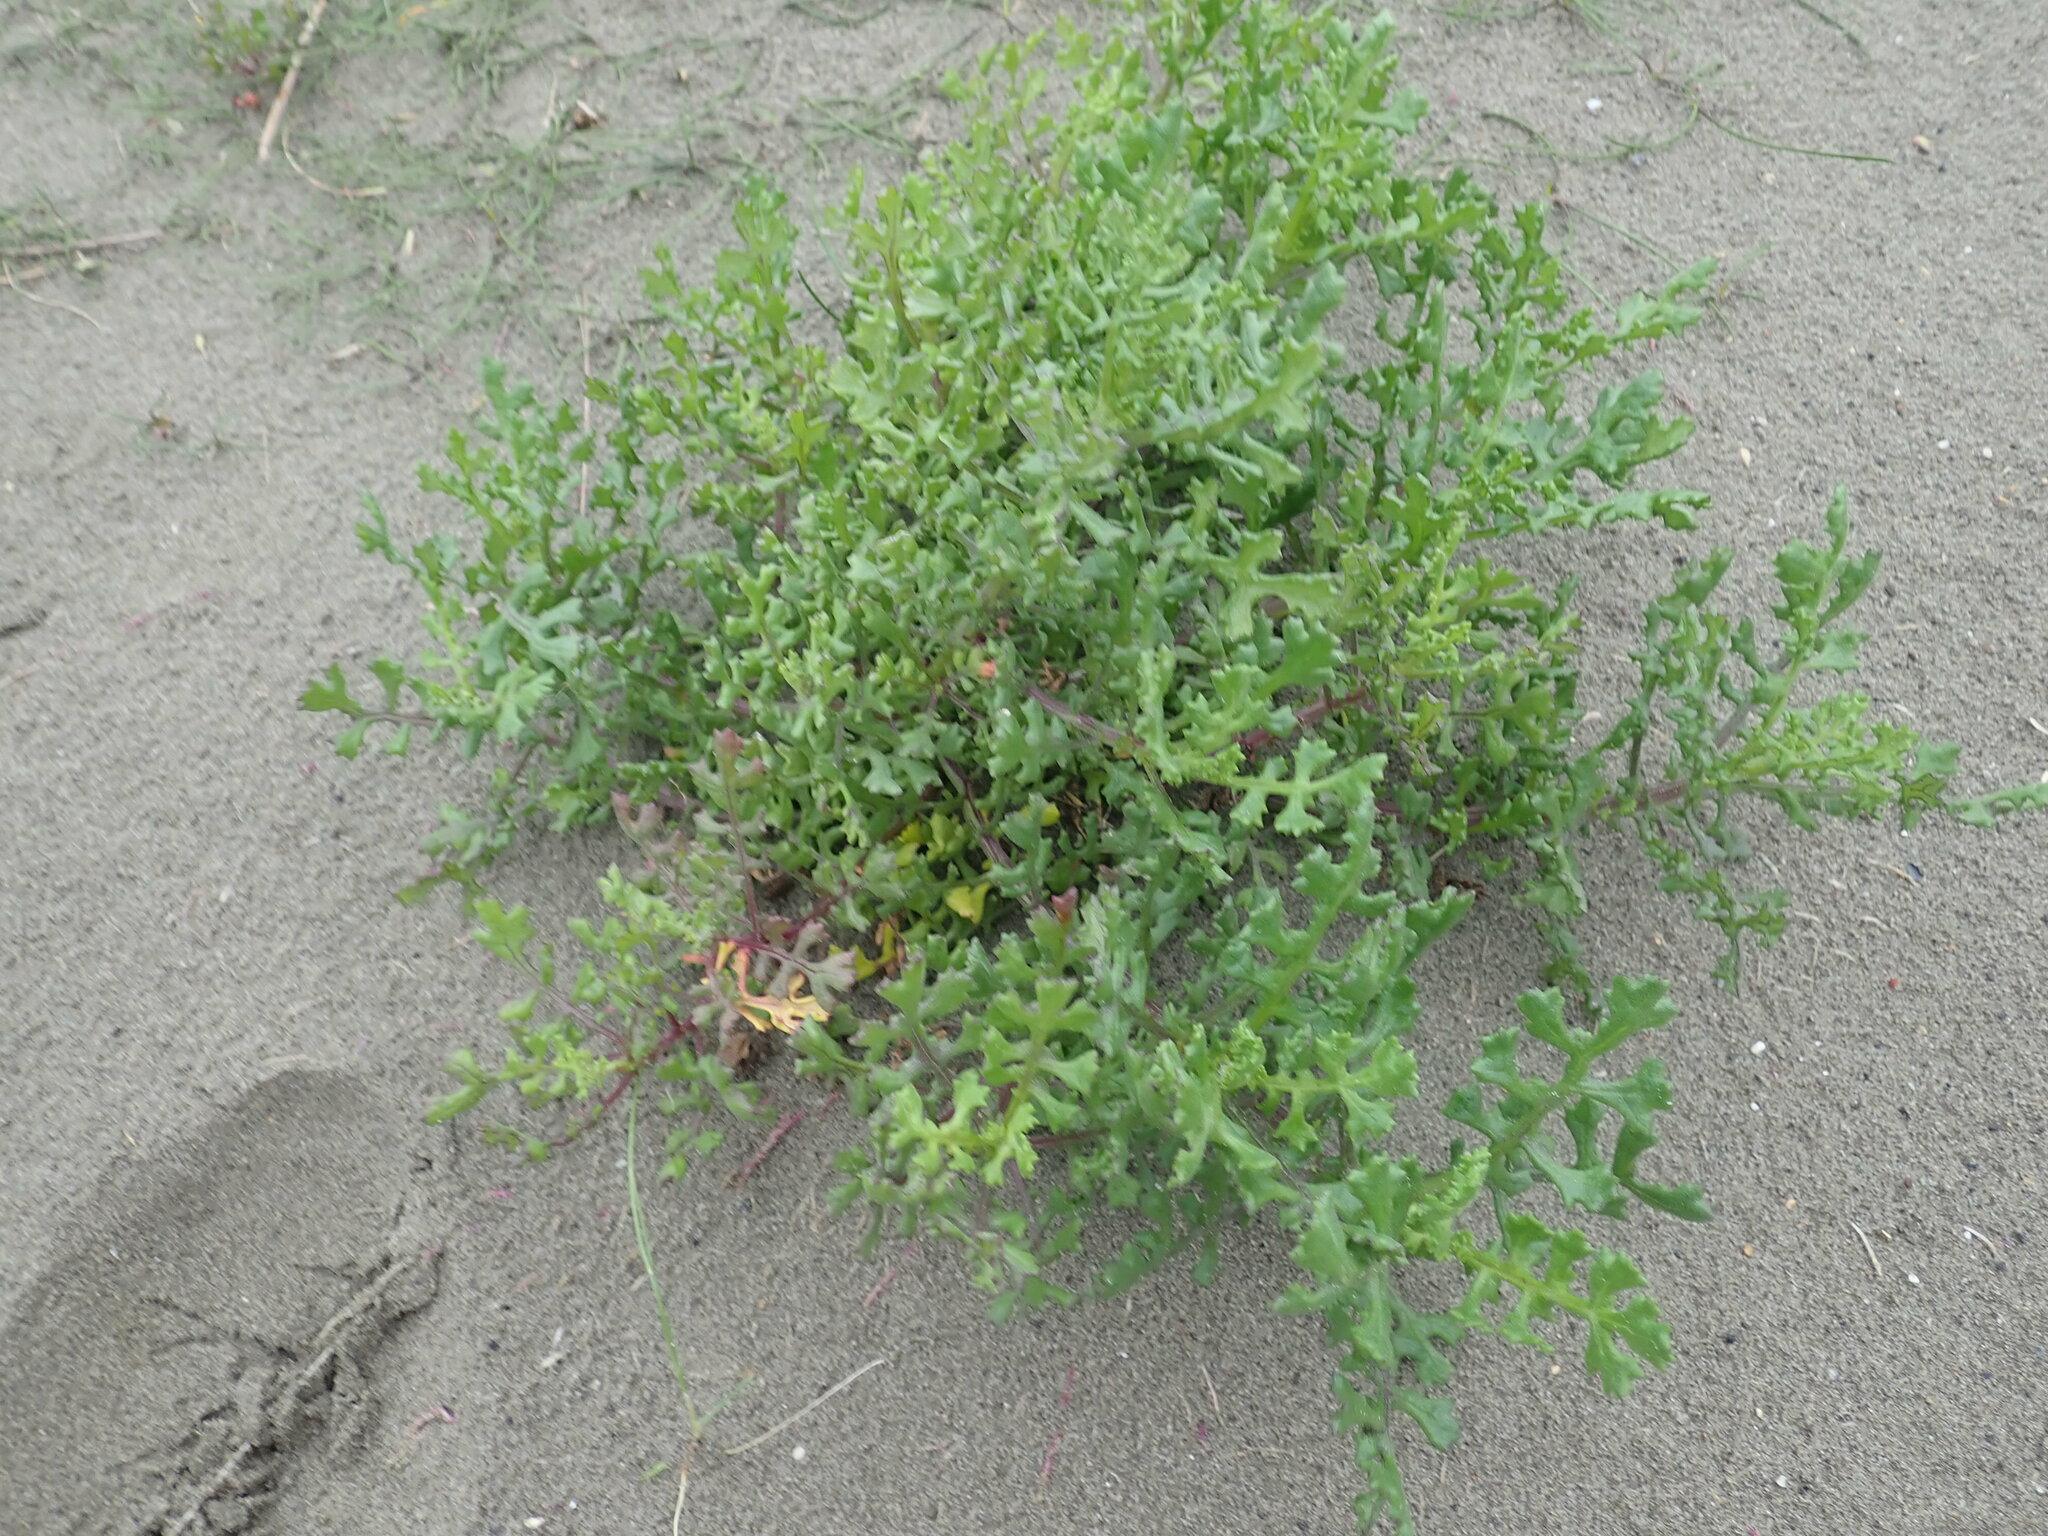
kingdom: Plantae
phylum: Tracheophyta
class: Magnoliopsida
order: Asterales
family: Asteraceae
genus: Senecio
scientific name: Senecio elegans
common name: Purple groundsel
